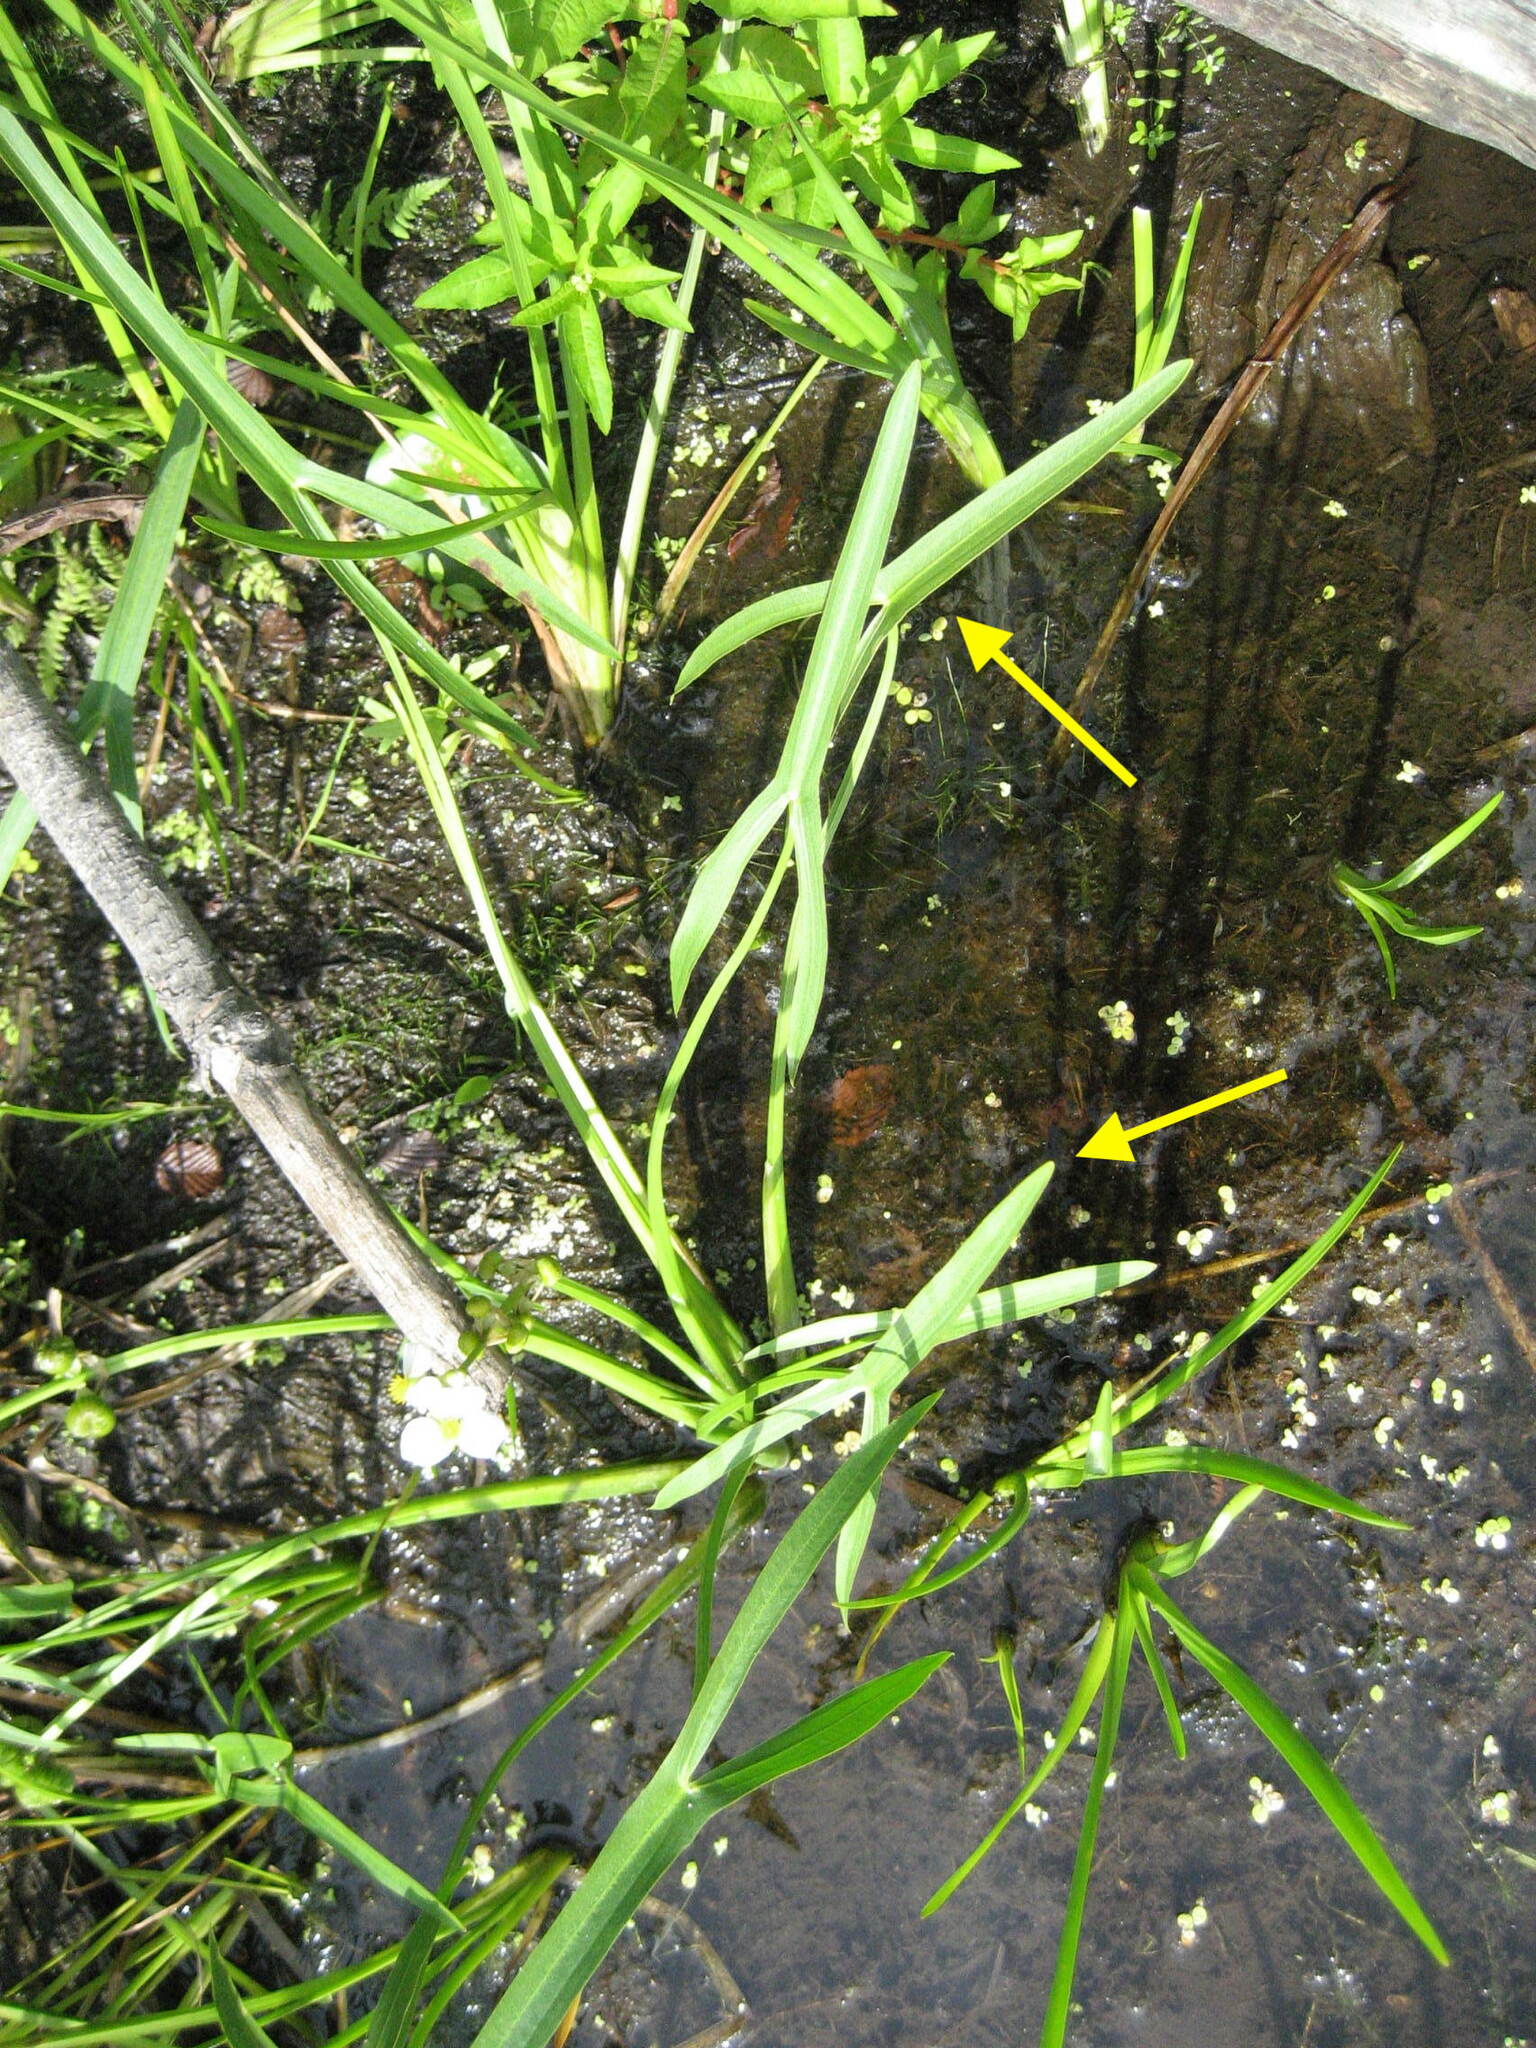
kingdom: Plantae
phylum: Tracheophyta
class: Liliopsida
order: Alismatales
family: Alismataceae
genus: Sagittaria
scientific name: Sagittaria latifolia
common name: Duck-potato
